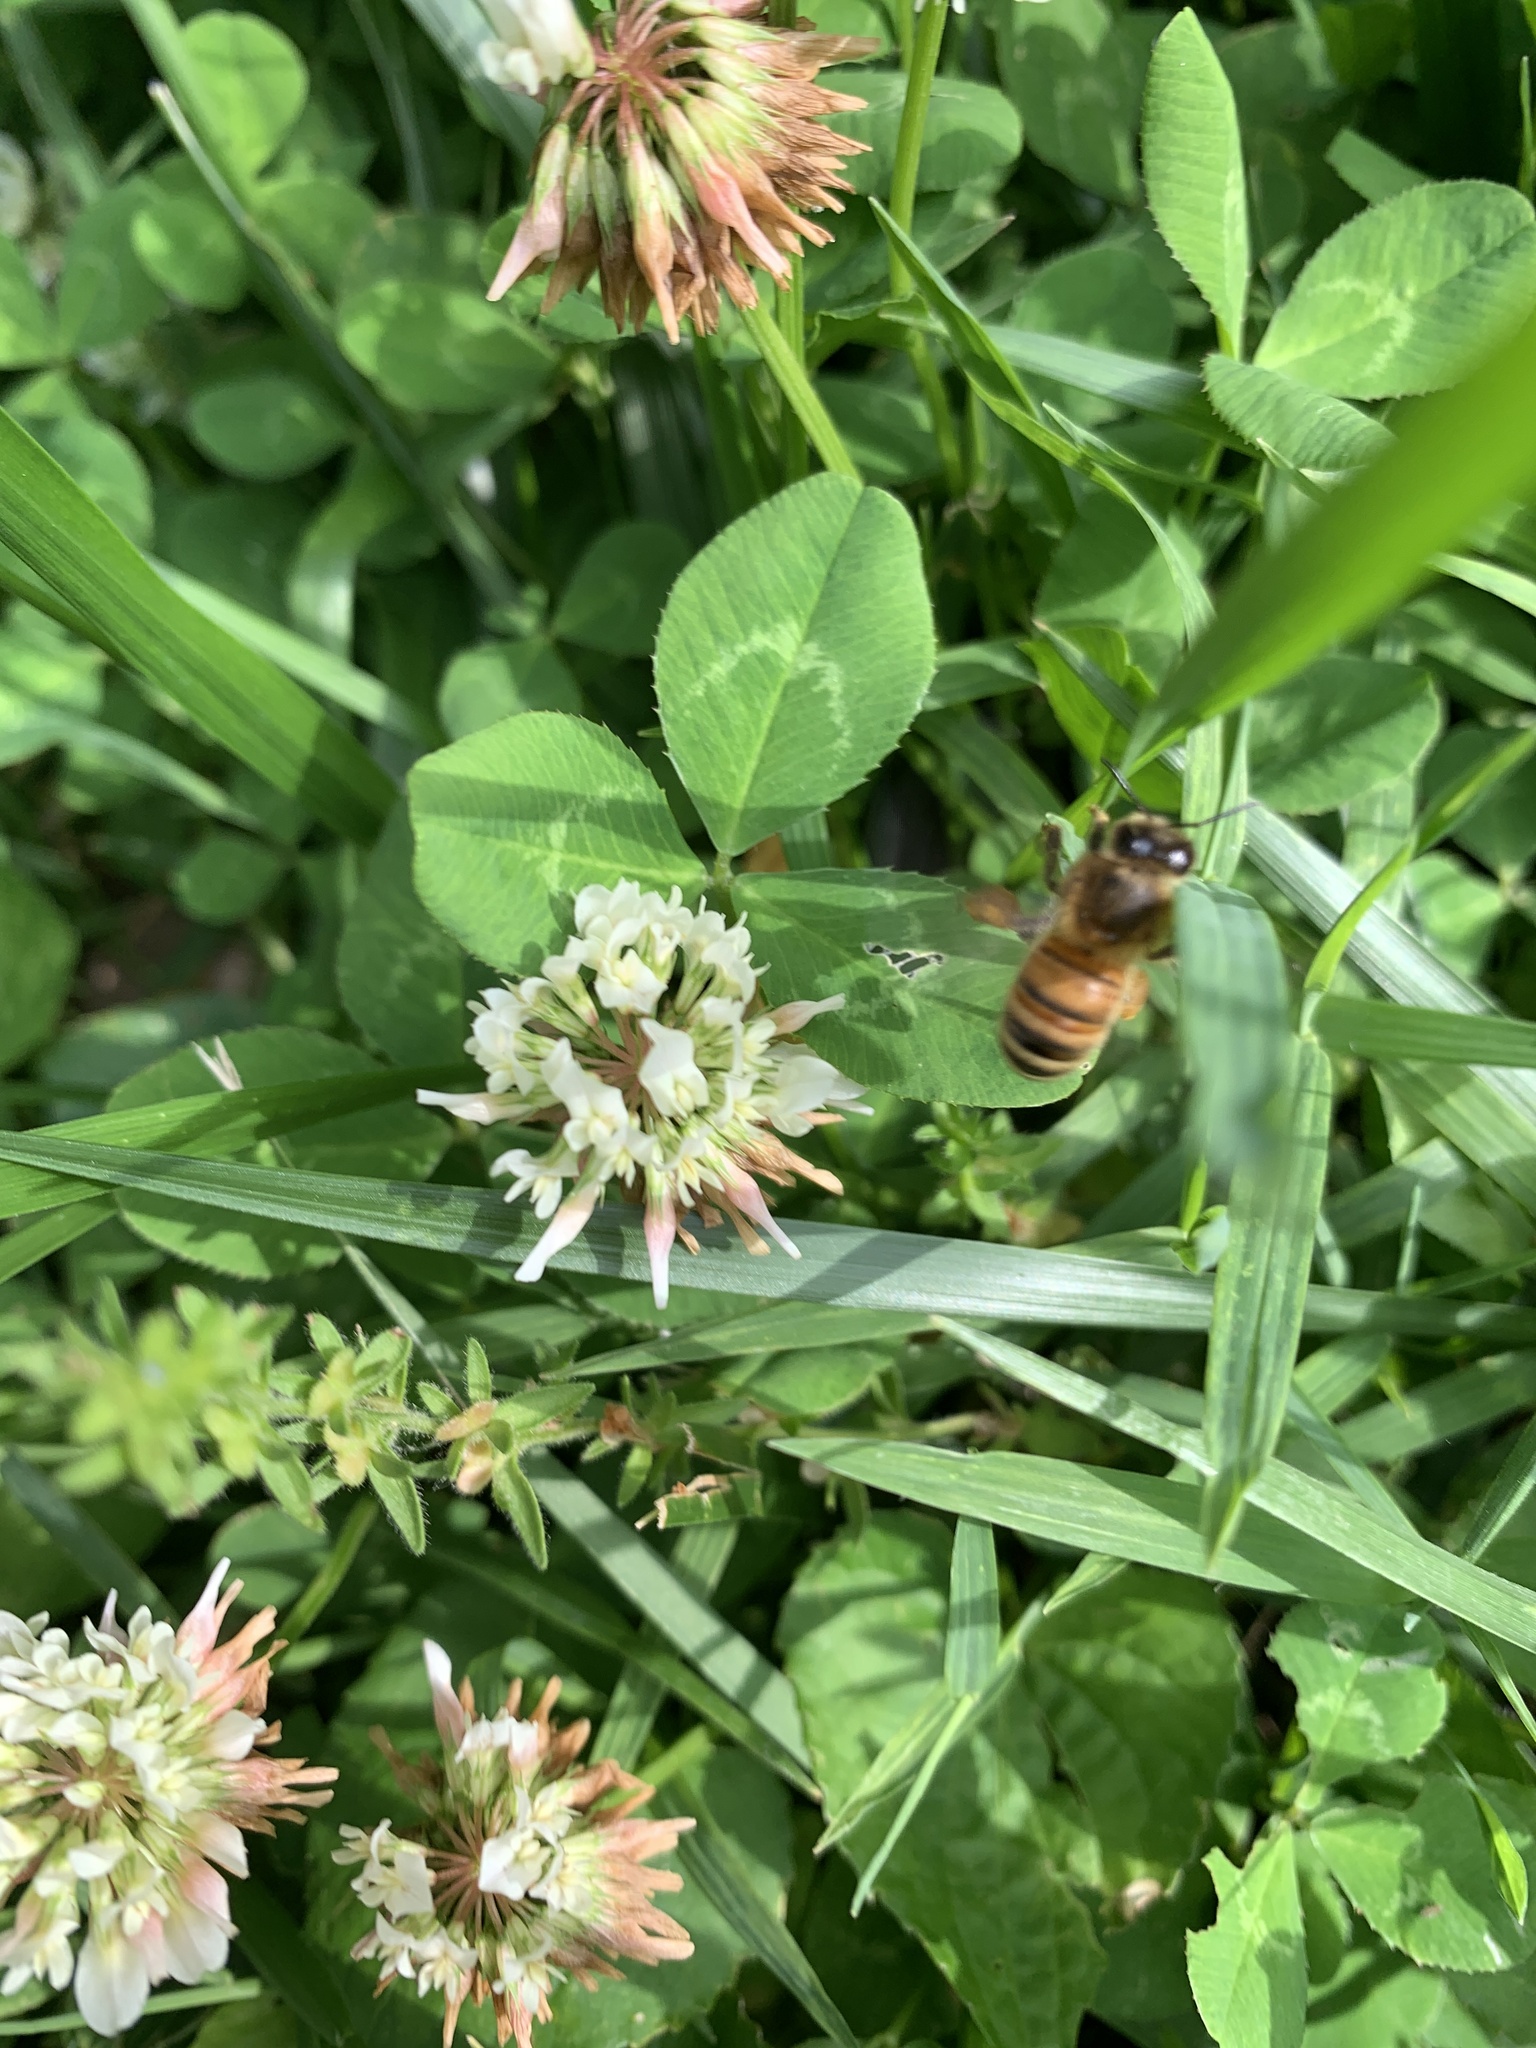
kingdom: Animalia
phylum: Arthropoda
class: Insecta
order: Hymenoptera
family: Apidae
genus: Apis
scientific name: Apis mellifera
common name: Honey bee
